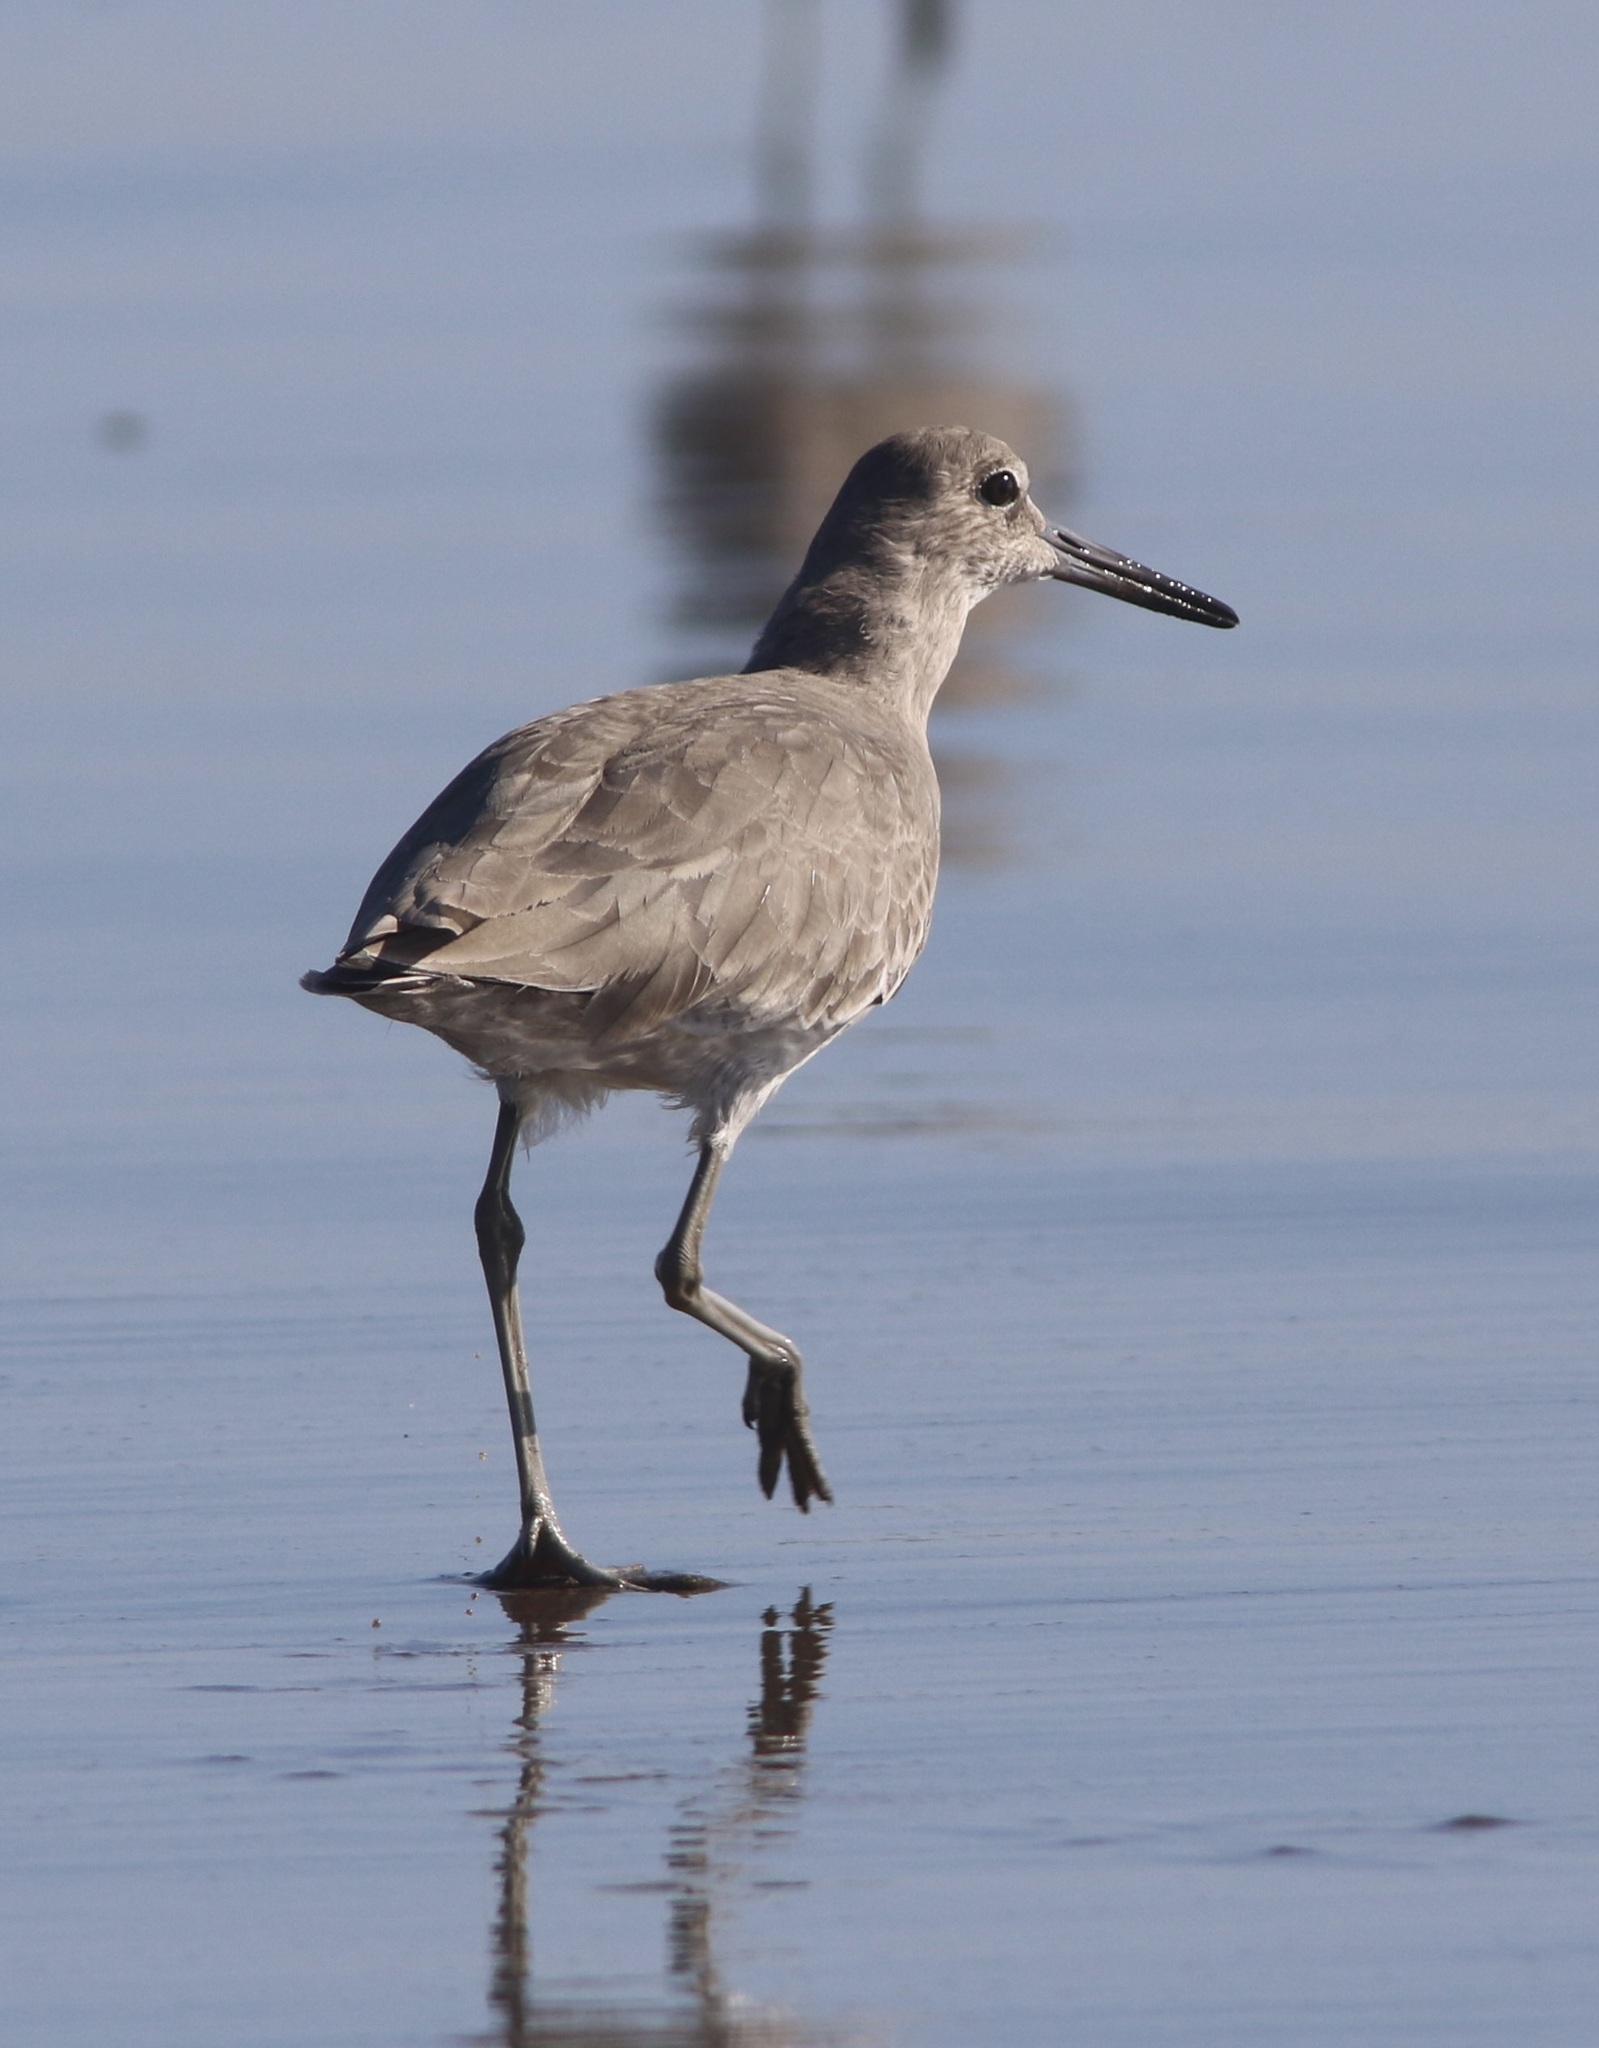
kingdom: Animalia
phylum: Chordata
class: Aves
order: Charadriiformes
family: Scolopacidae
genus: Tringa
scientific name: Tringa semipalmata
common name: Willet
